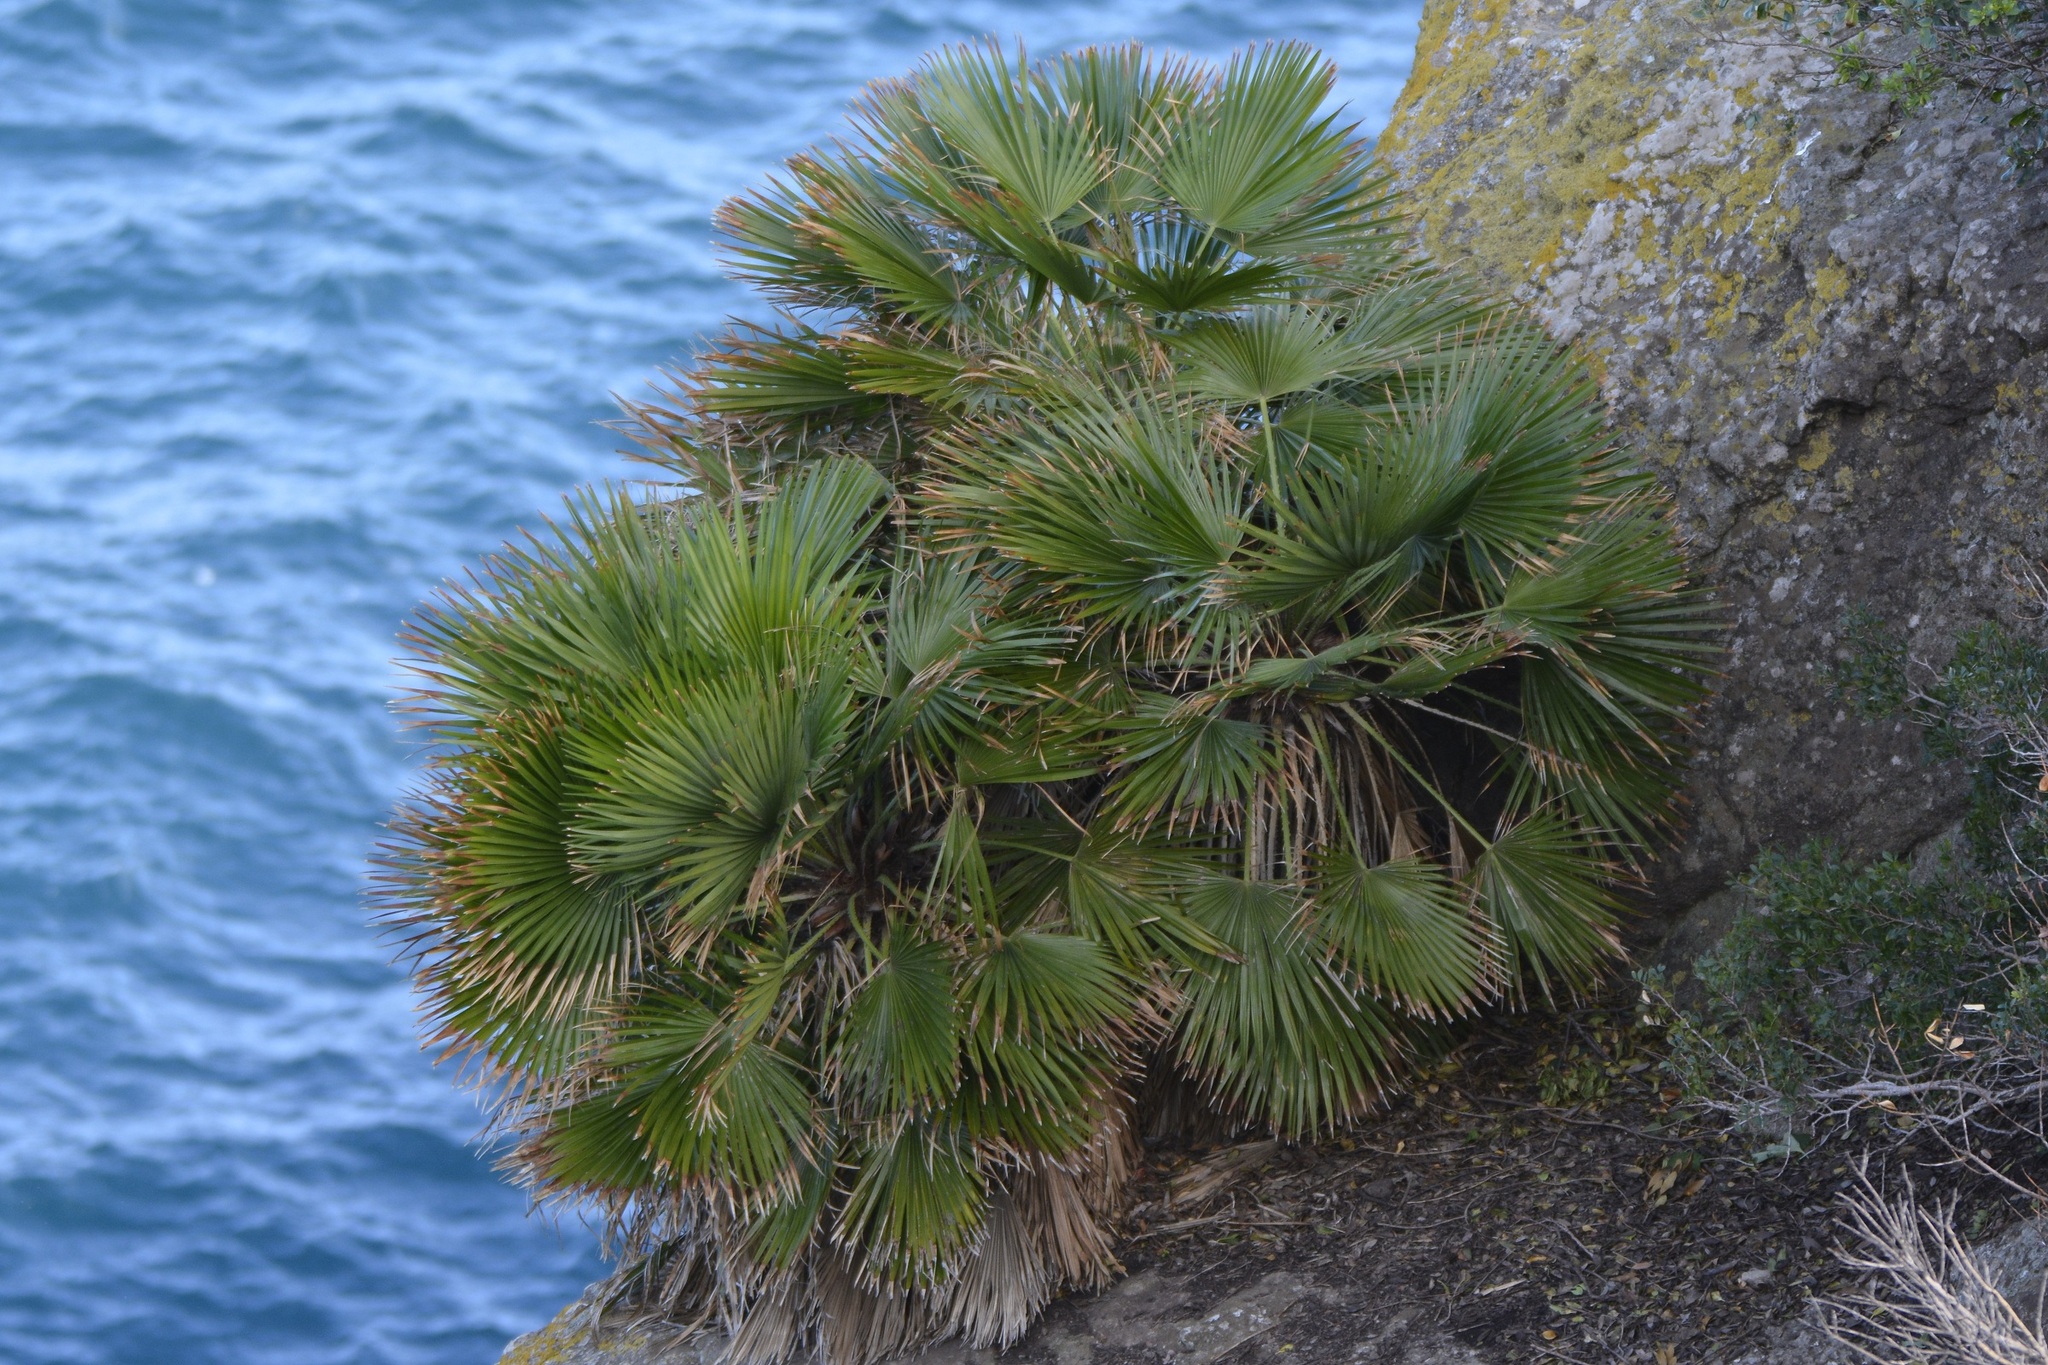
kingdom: Plantae
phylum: Tracheophyta
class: Liliopsida
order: Arecales
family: Arecaceae
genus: Chamaerops
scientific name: Chamaerops humilis
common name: Dwarf fan palm
